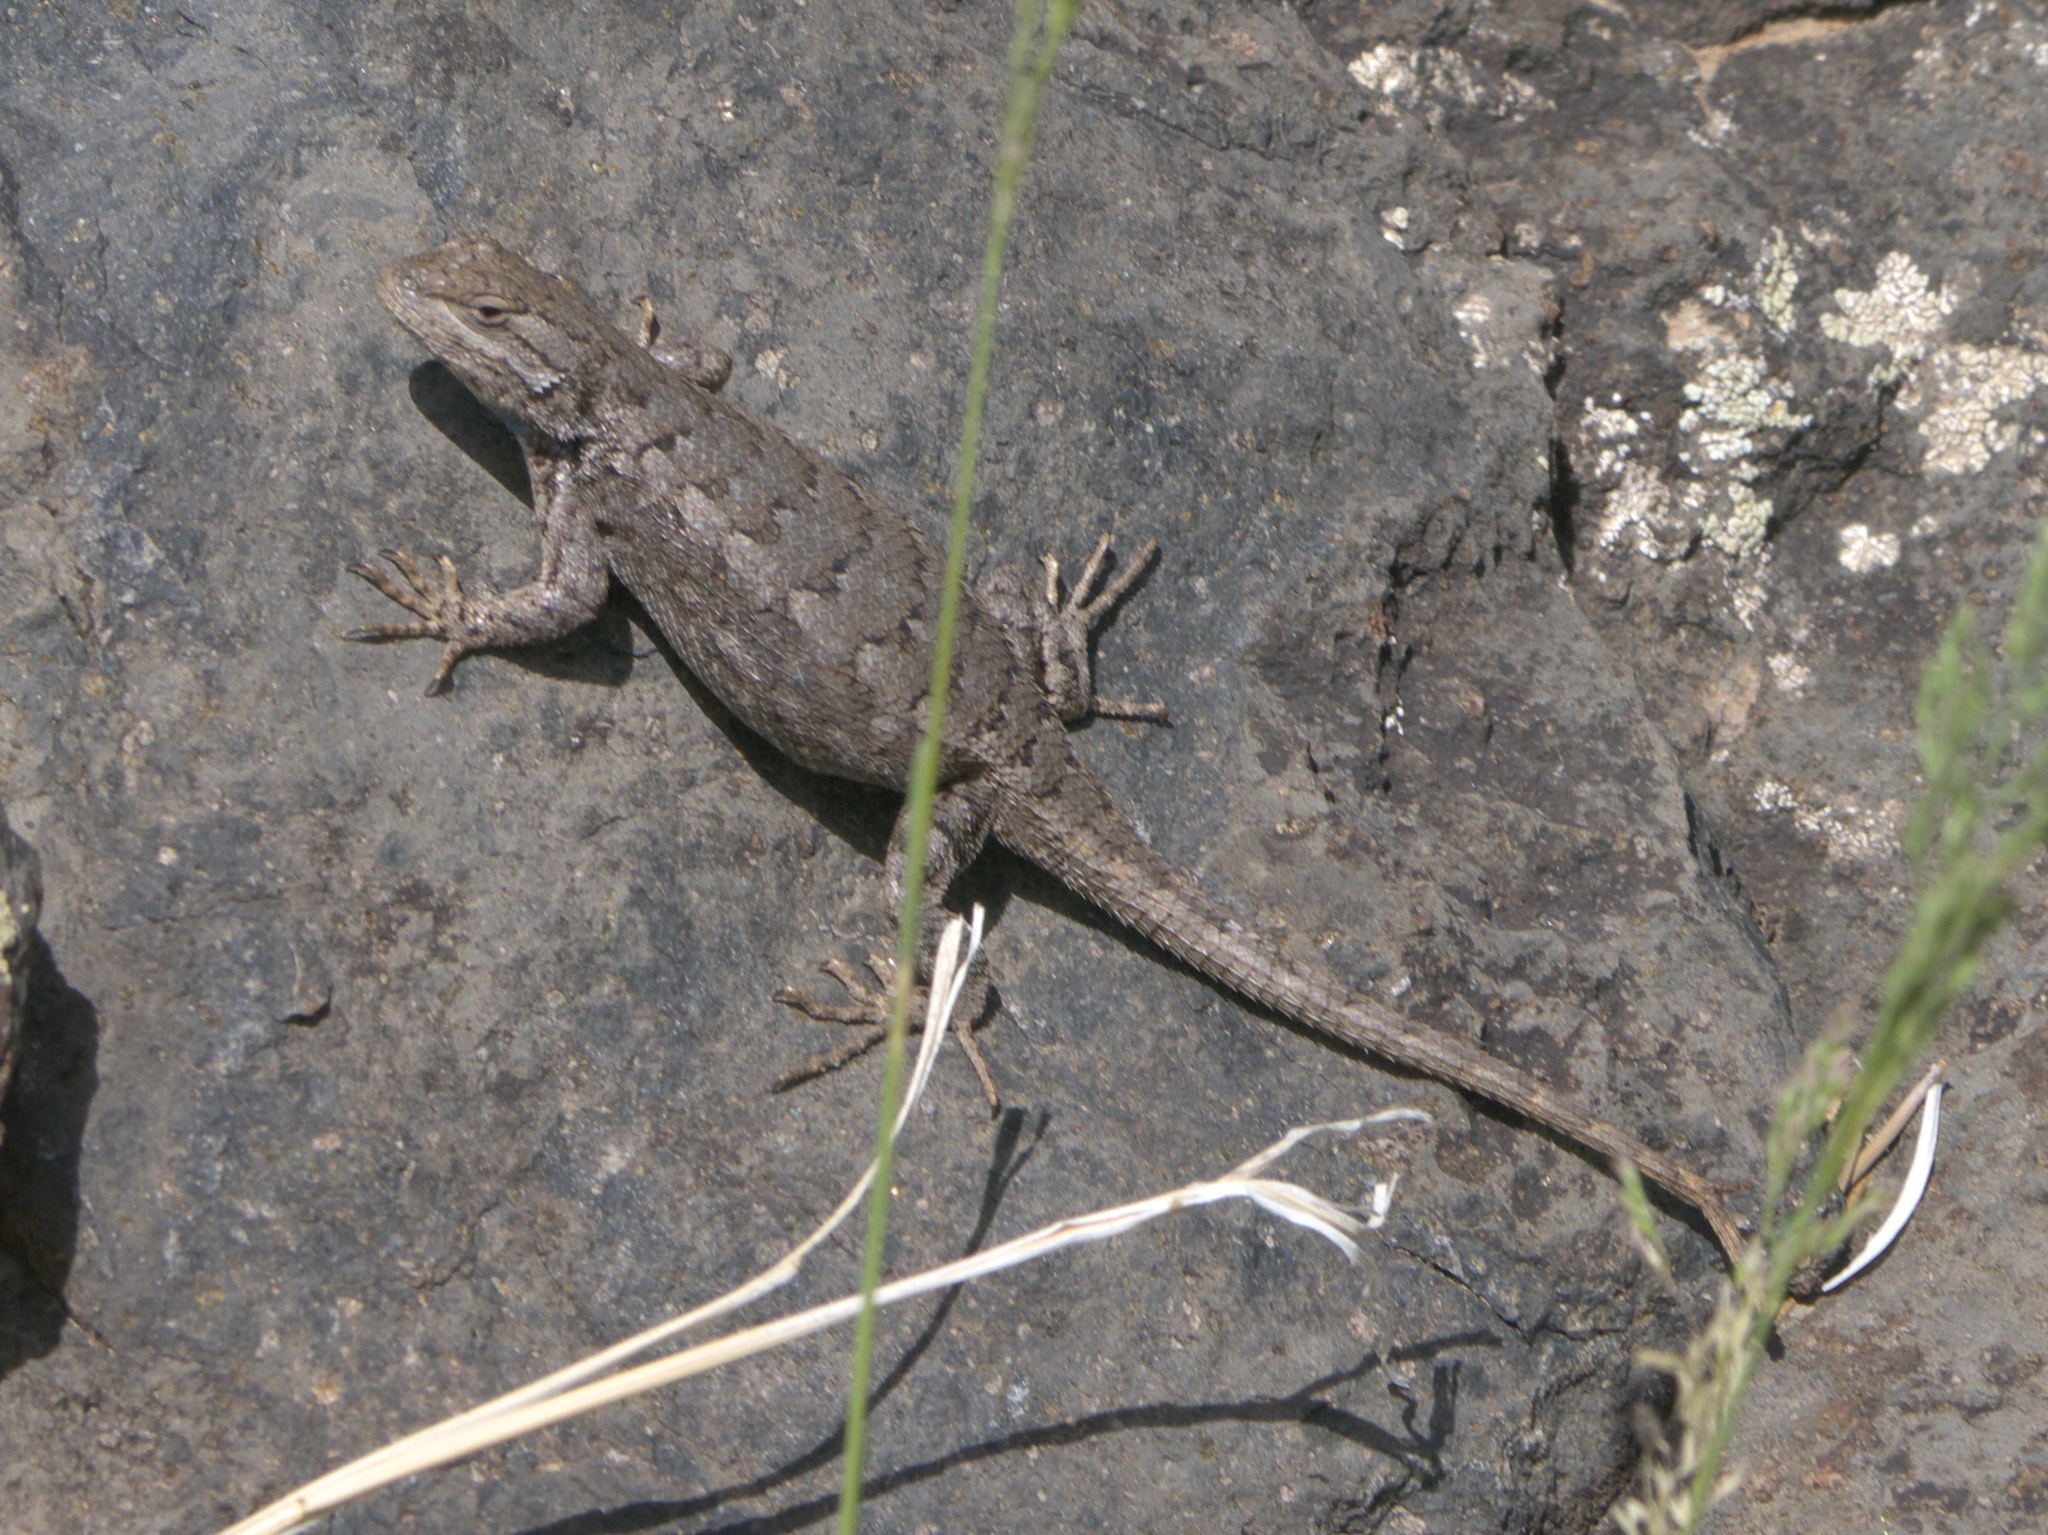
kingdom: Animalia
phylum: Chordata
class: Squamata
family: Phrynosomatidae
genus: Sceloporus
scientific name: Sceloporus consobrinus
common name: Southern prairie lizard
